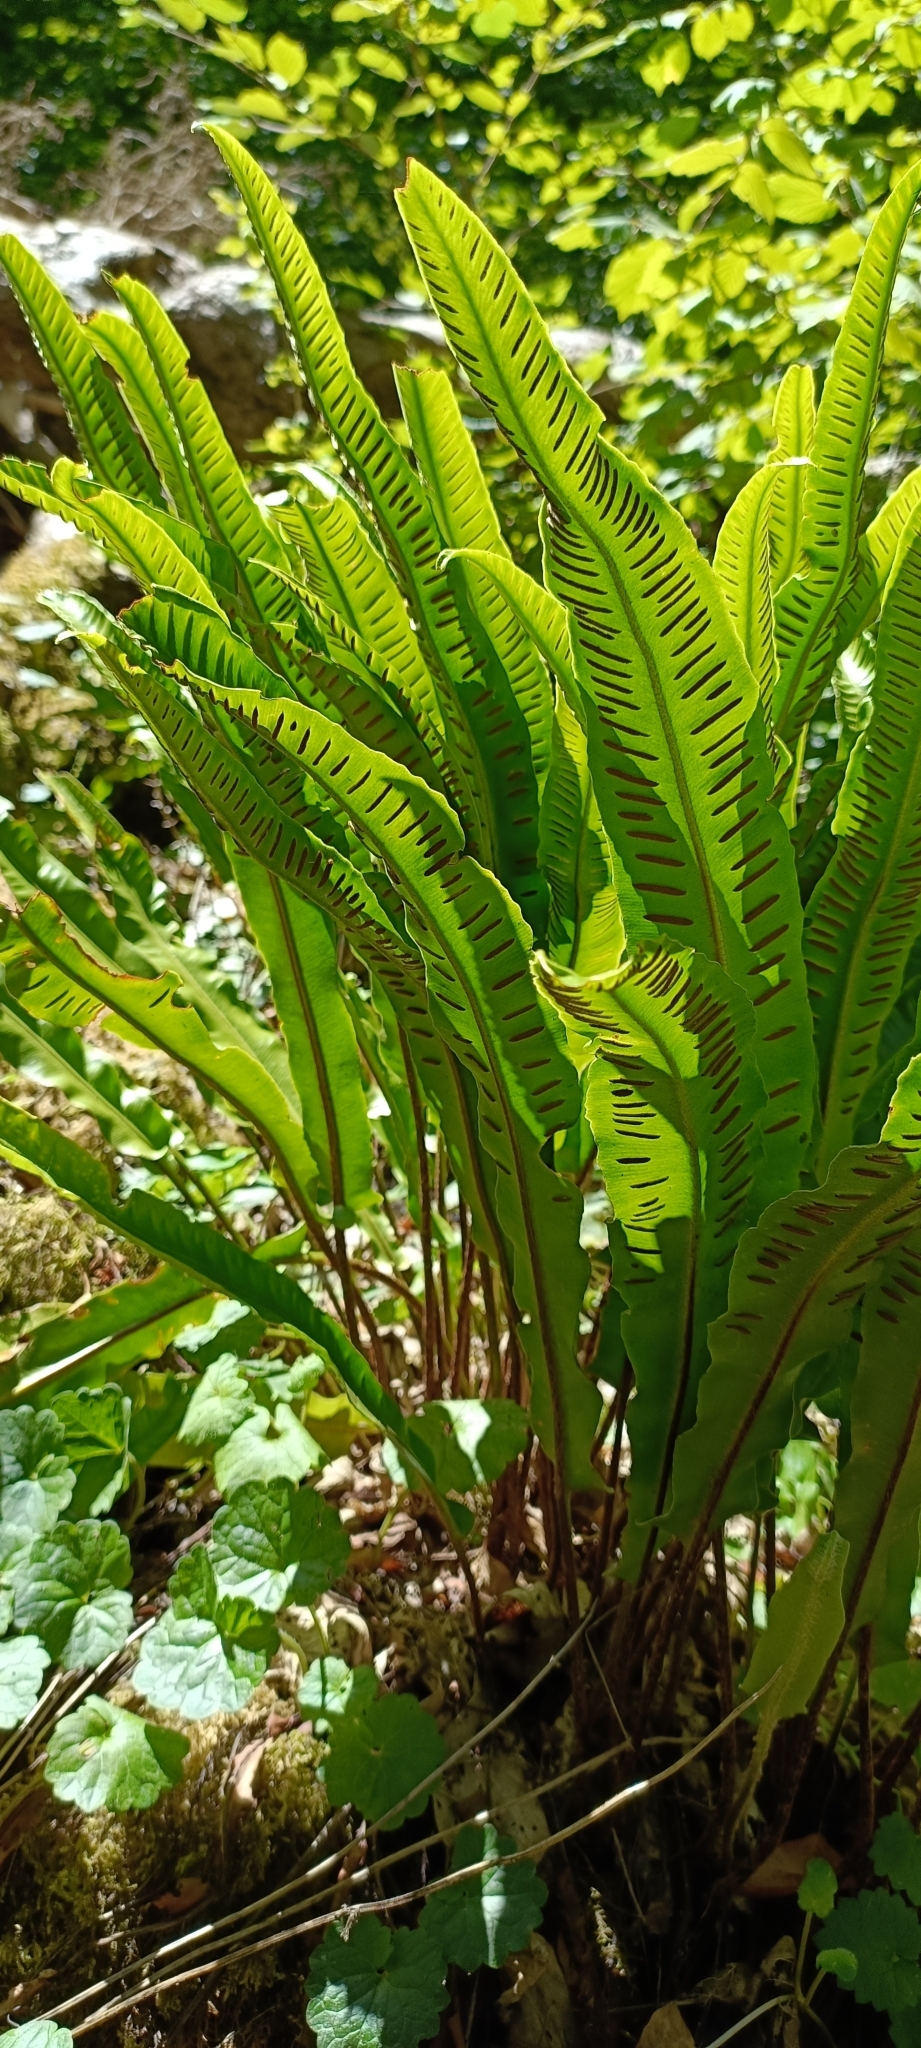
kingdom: Plantae
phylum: Tracheophyta
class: Polypodiopsida
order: Polypodiales
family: Aspleniaceae
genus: Asplenium
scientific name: Asplenium scolopendrium
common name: Hart's-tongue fern
